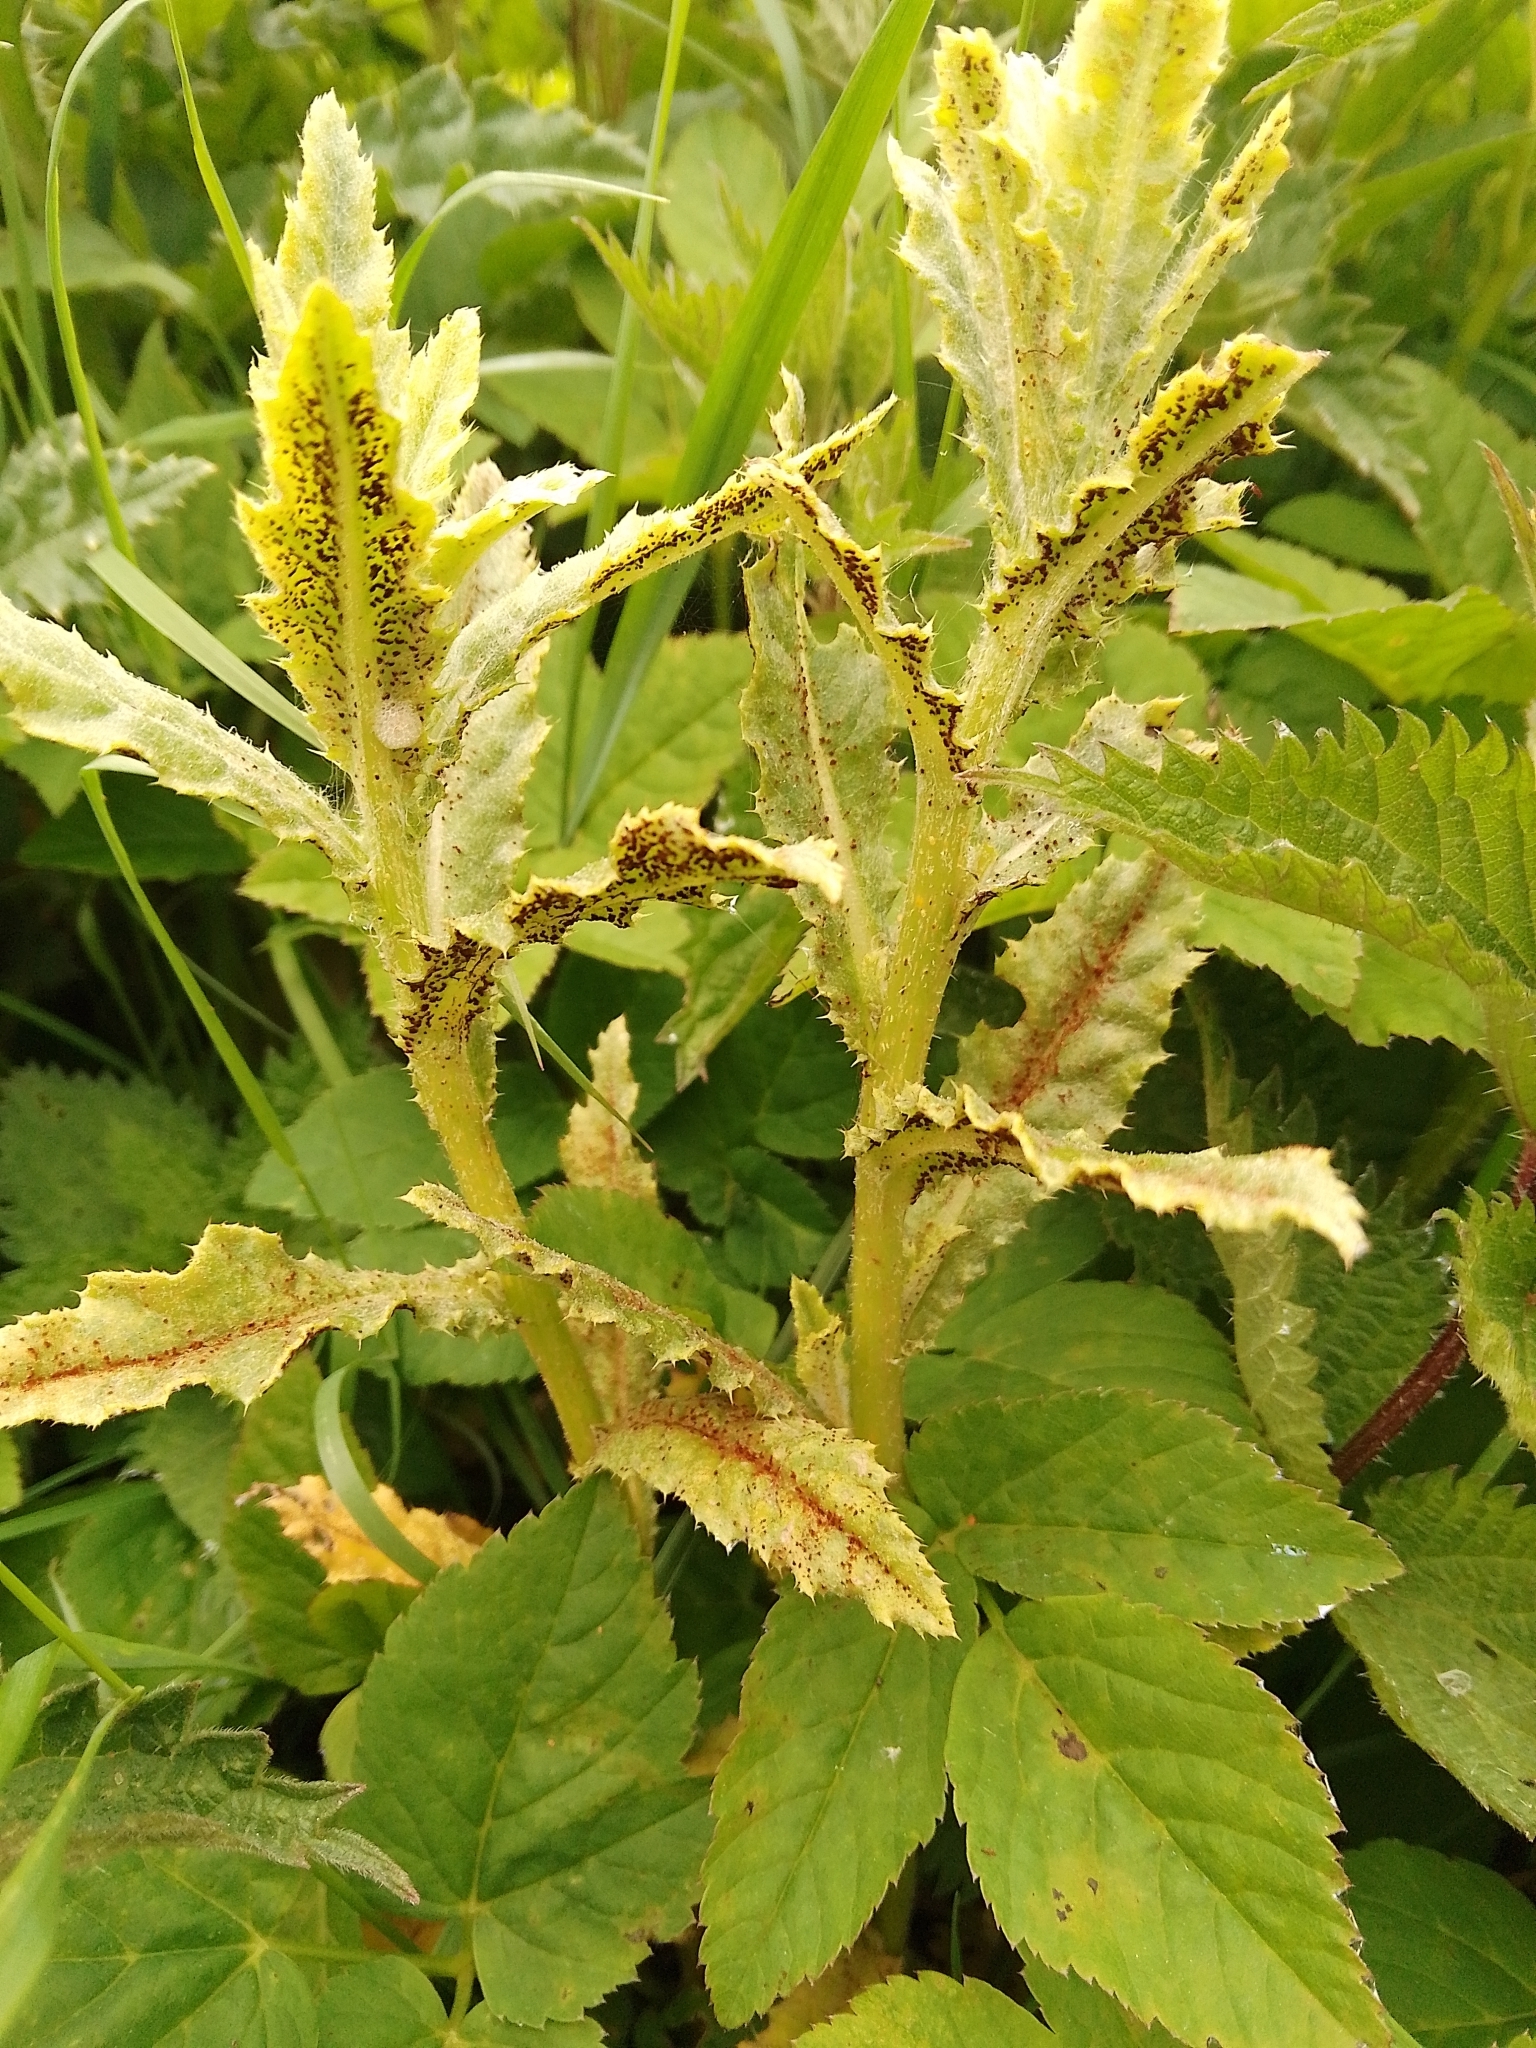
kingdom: Fungi
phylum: Basidiomycota
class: Pucciniomycetes
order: Pucciniales
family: Pucciniaceae
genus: Puccinia
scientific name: Puccinia suaveolens
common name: Thistle rust
